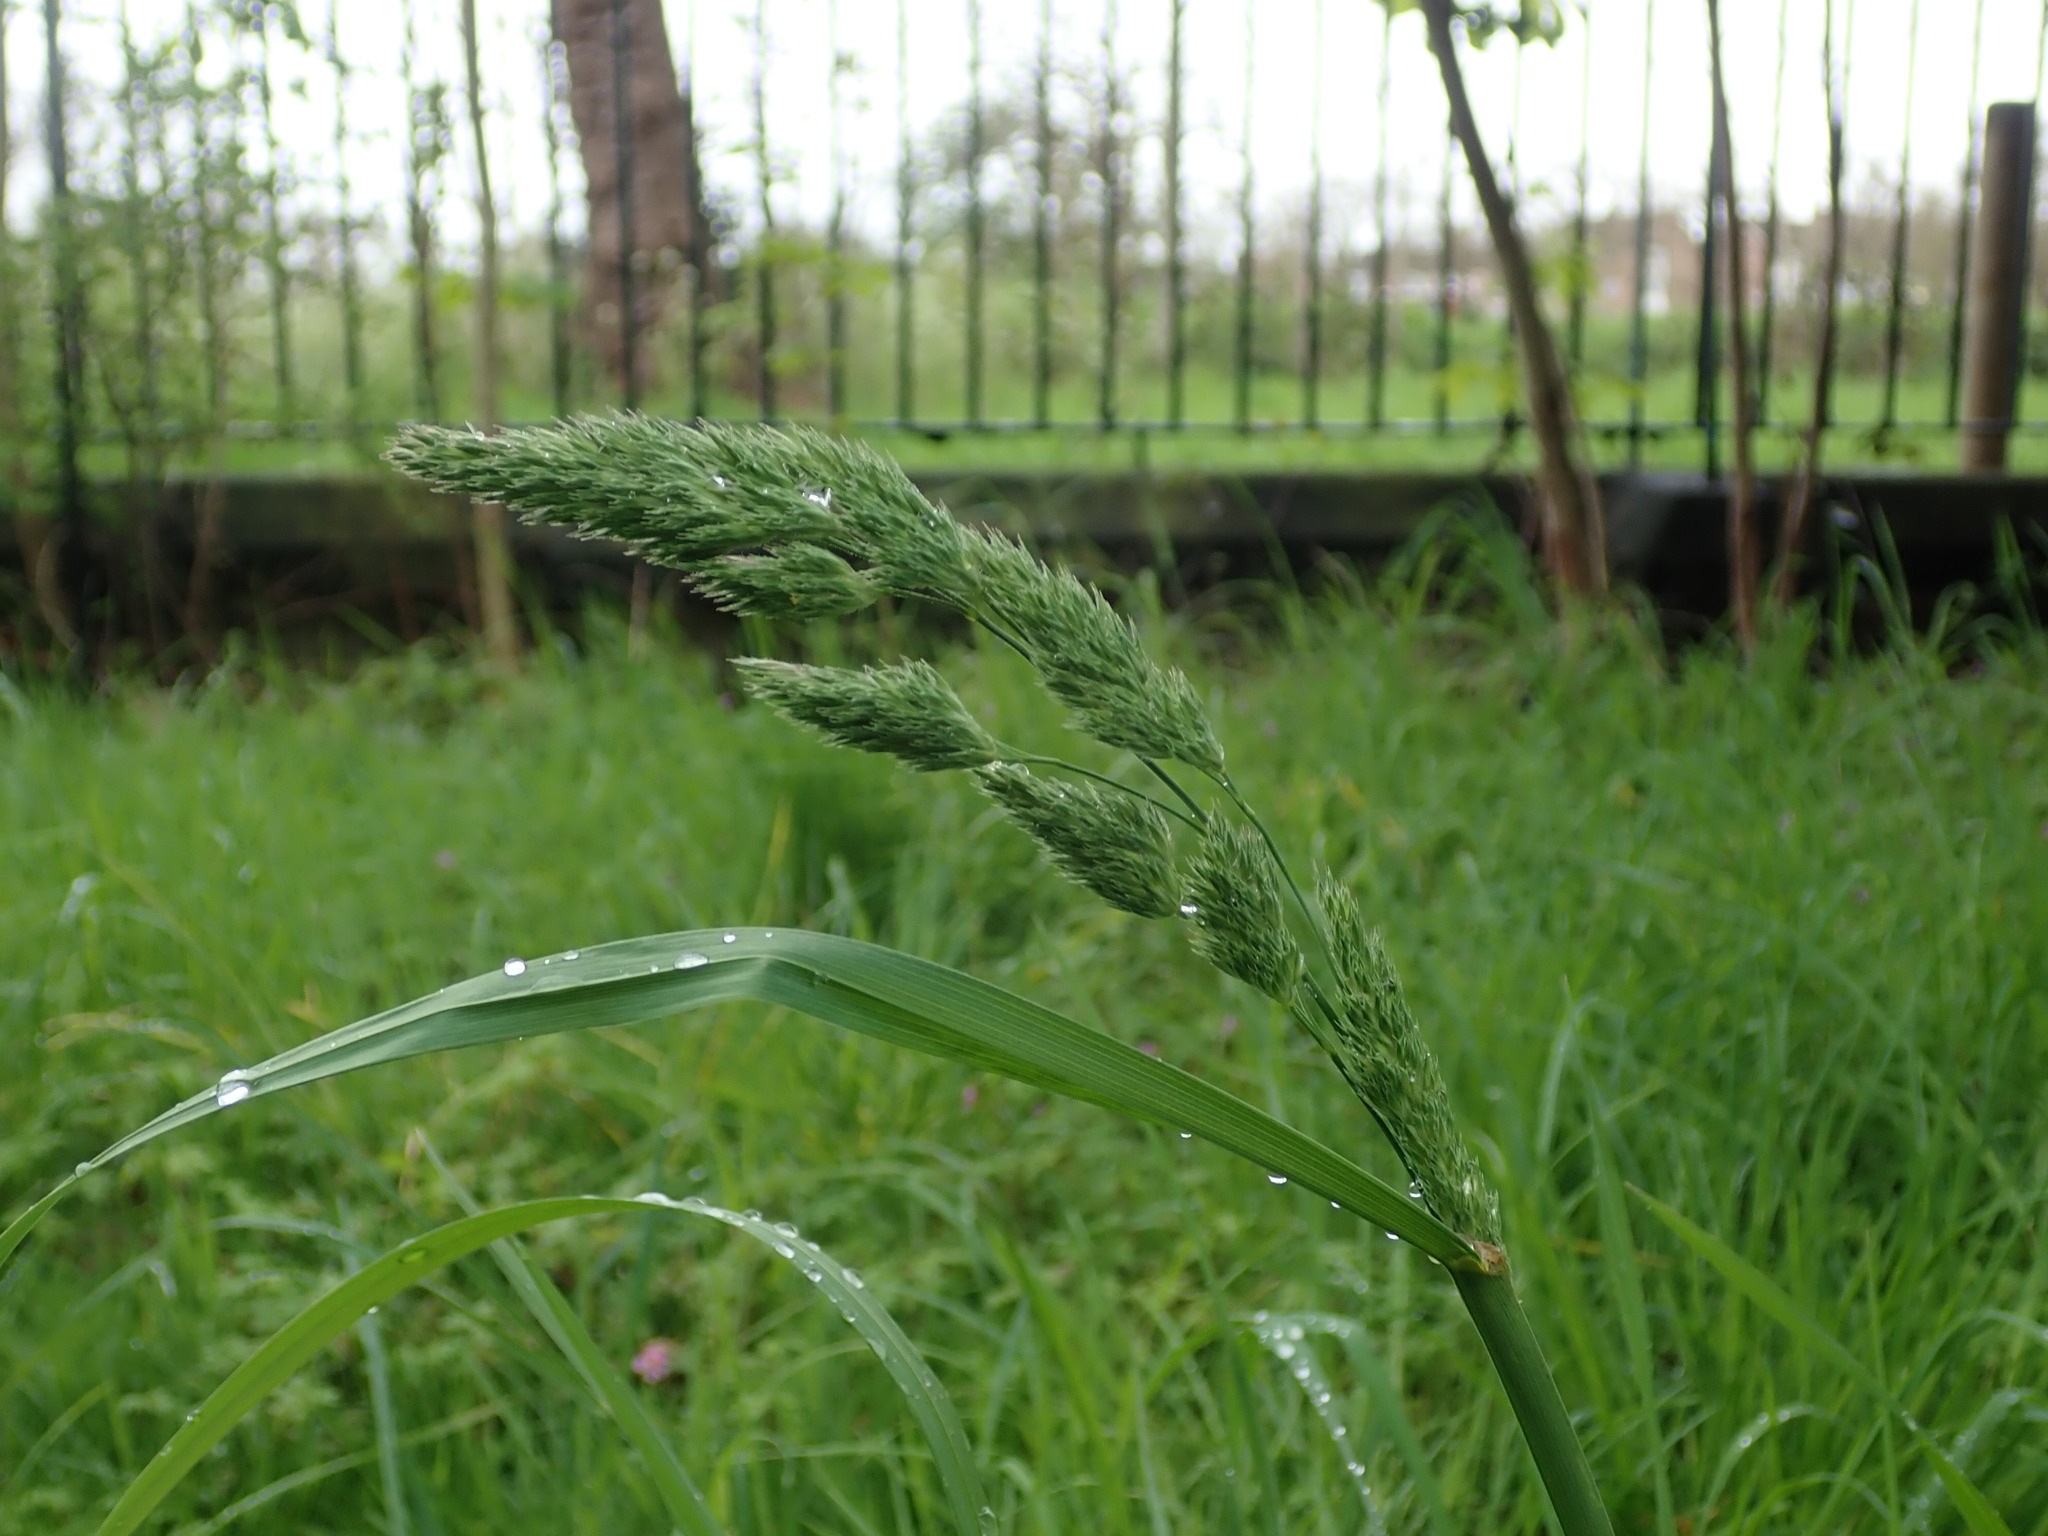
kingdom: Plantae
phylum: Tracheophyta
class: Liliopsida
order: Poales
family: Poaceae
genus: Dactylis
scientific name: Dactylis glomerata
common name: Orchardgrass
